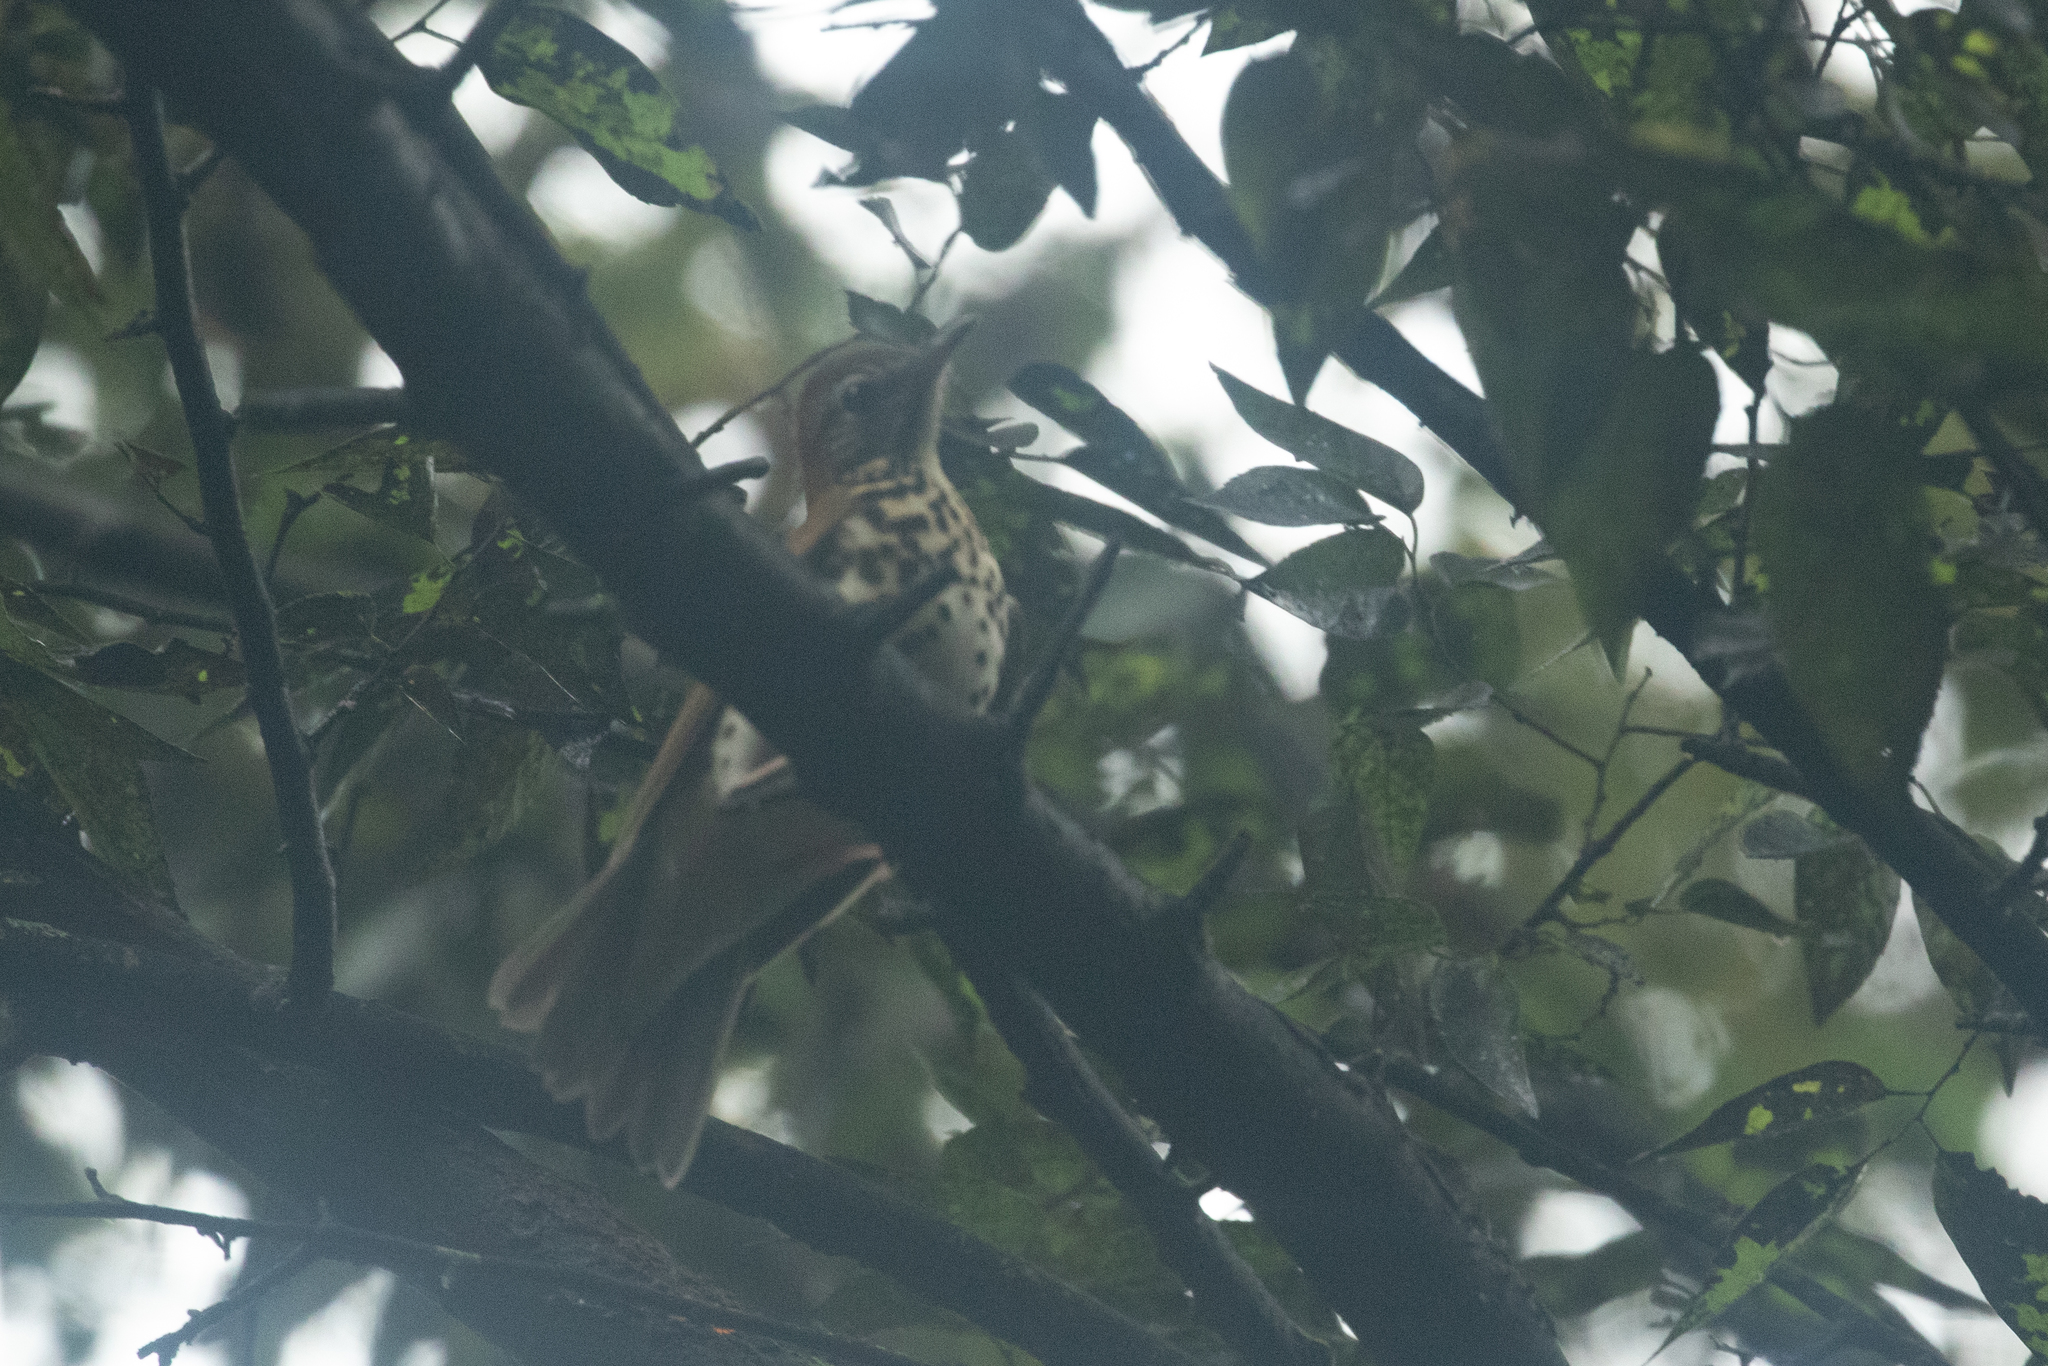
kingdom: Animalia
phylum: Chordata
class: Aves
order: Passeriformes
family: Turdidae
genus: Hylocichla
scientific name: Hylocichla mustelina
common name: Wood thrush
